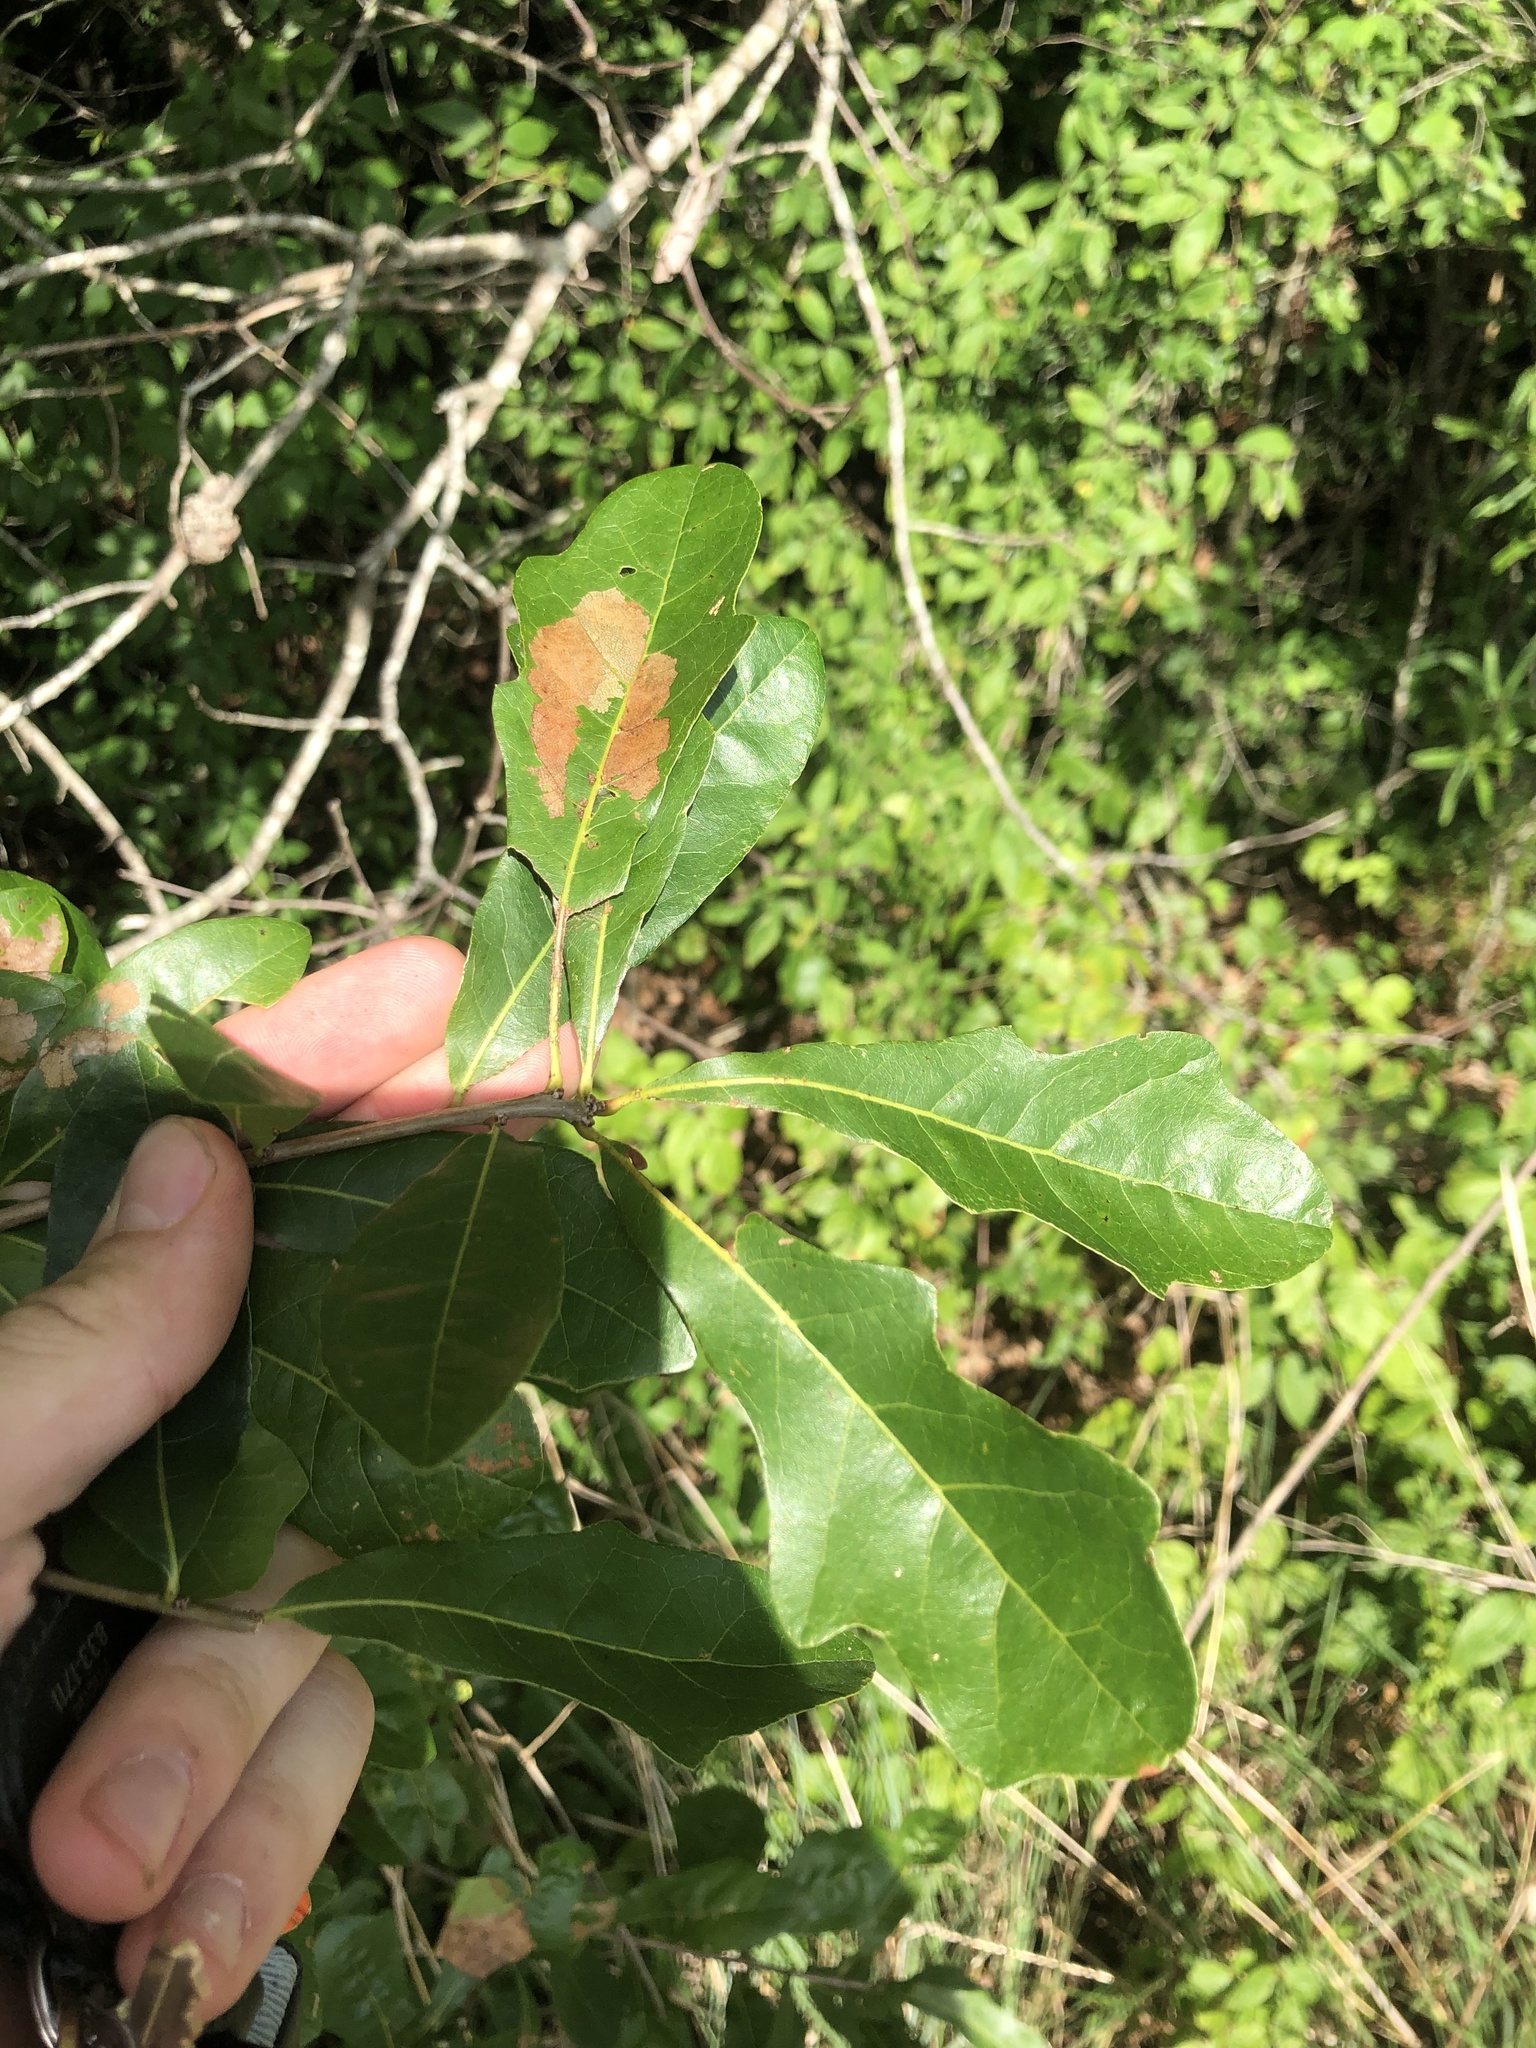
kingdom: Plantae
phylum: Tracheophyta
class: Magnoliopsida
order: Fagales
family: Fagaceae
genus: Quercus
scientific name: Quercus sinuata
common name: Durand oak
